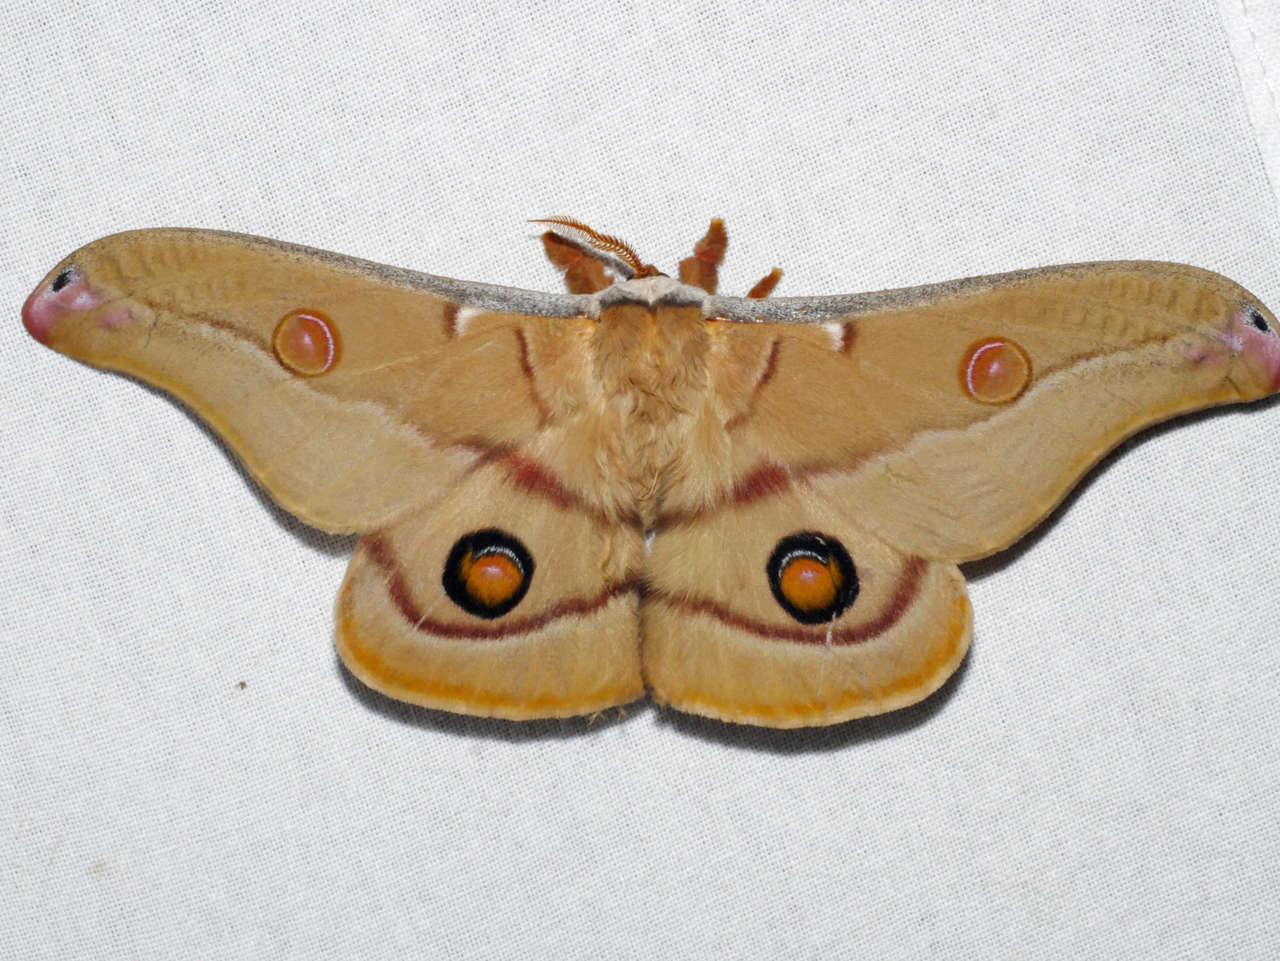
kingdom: Animalia
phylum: Arthropoda
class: Insecta
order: Lepidoptera
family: Saturniidae
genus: Opodiphthera
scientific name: Opodiphthera
